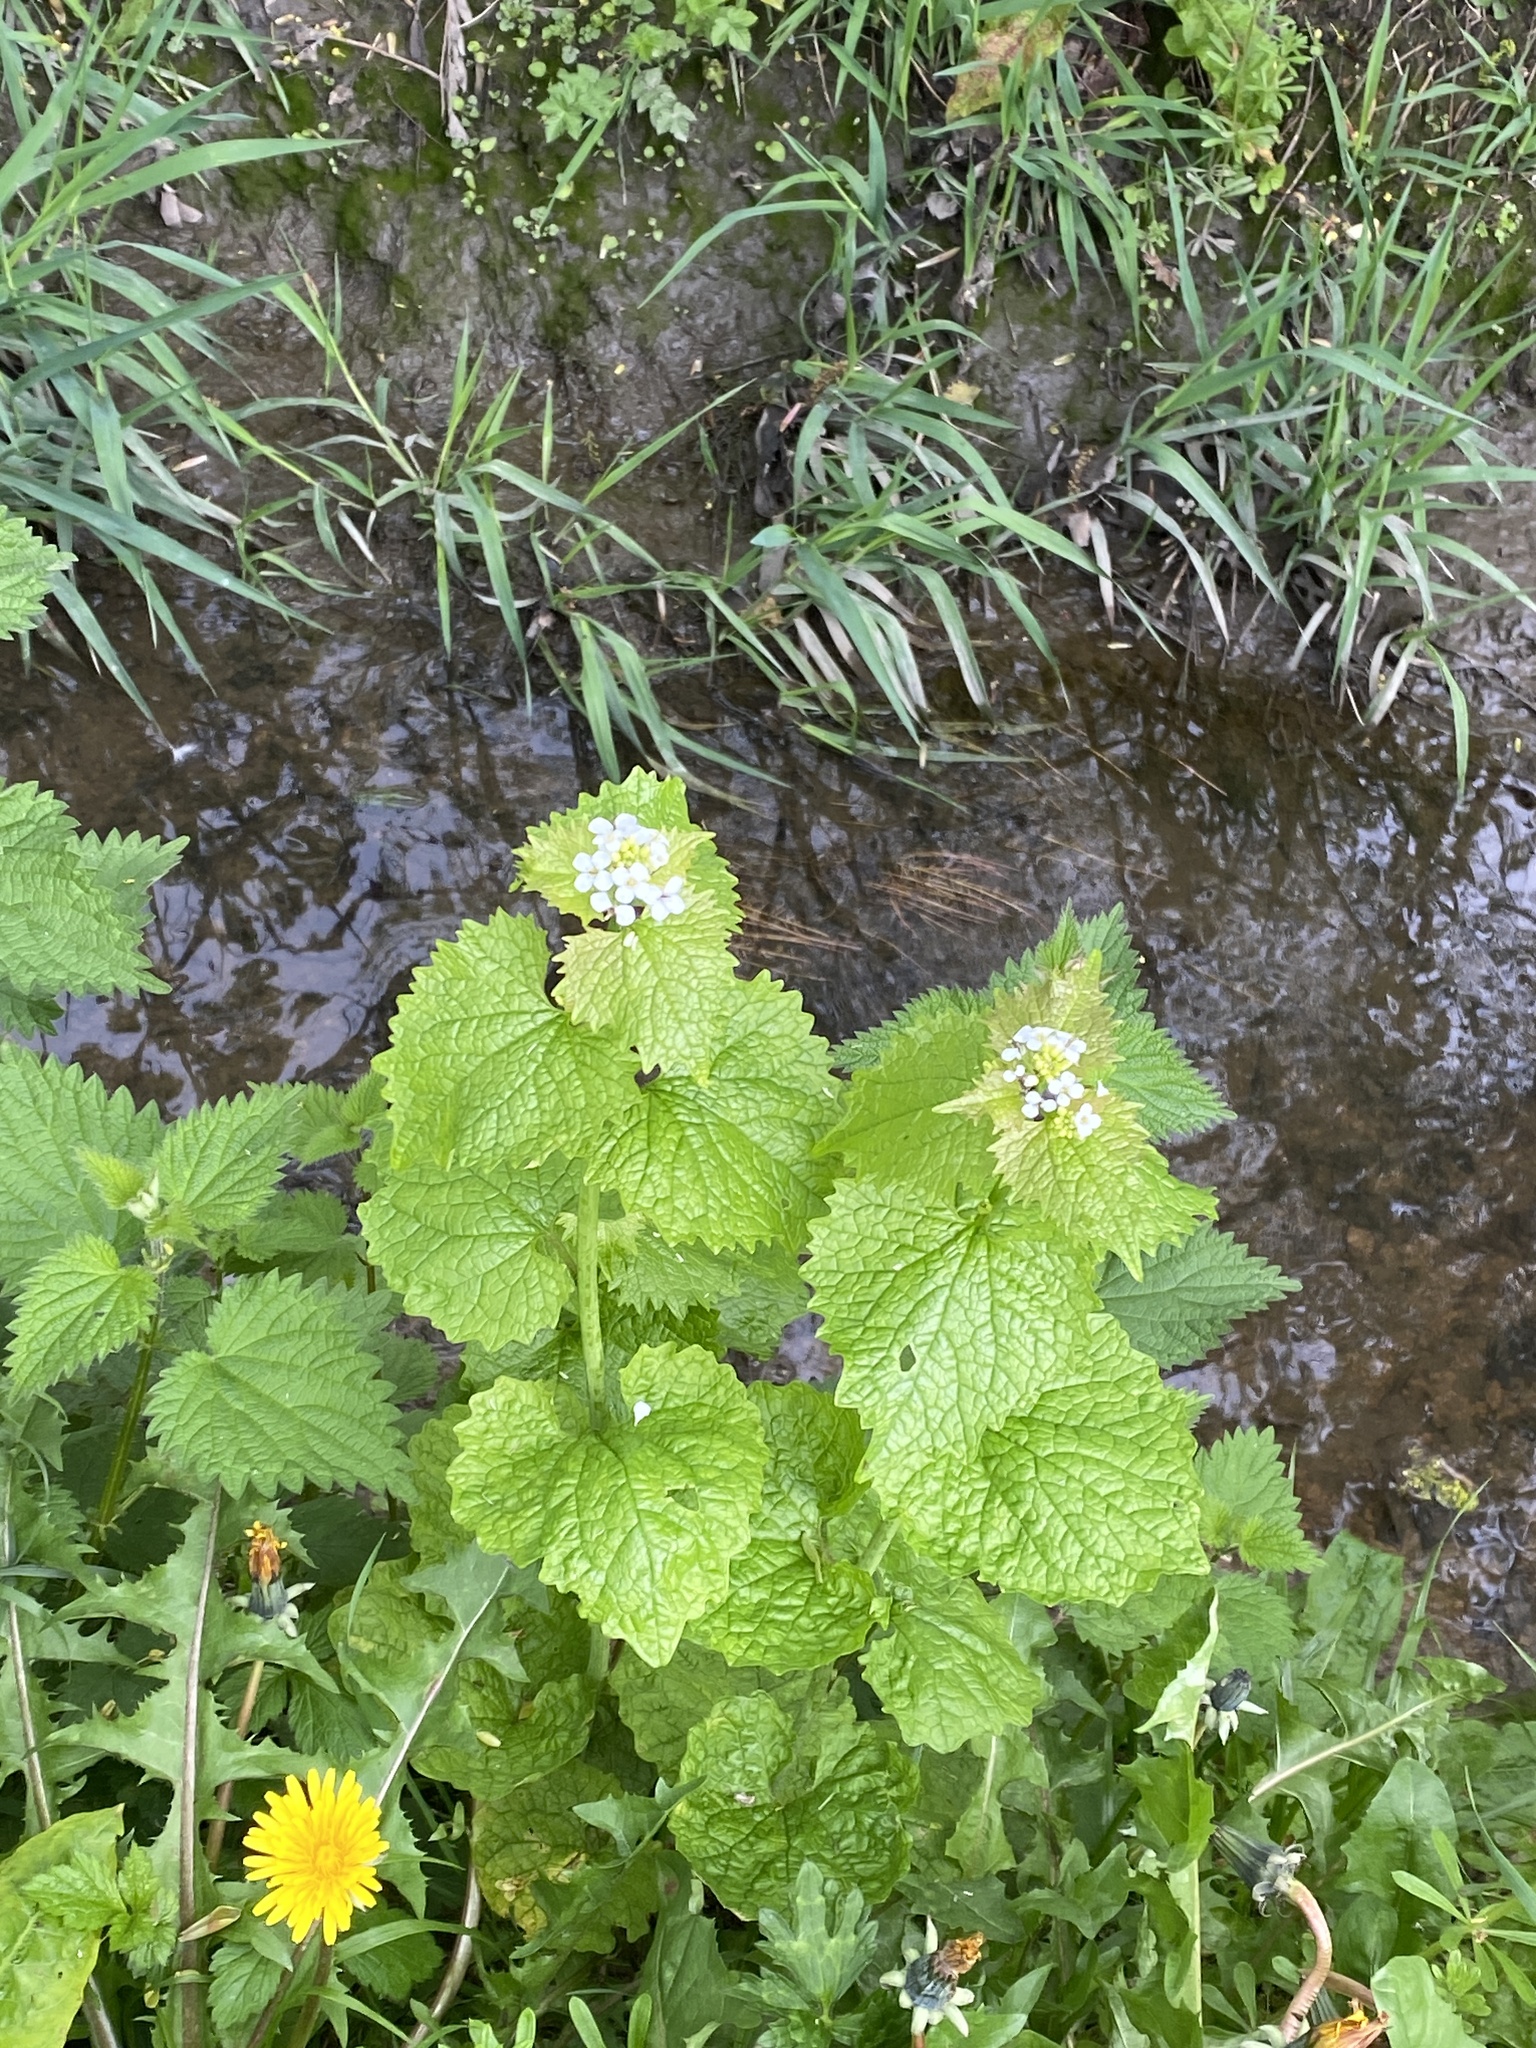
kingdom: Plantae
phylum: Tracheophyta
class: Magnoliopsida
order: Brassicales
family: Brassicaceae
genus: Alliaria
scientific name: Alliaria petiolata
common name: Garlic mustard
